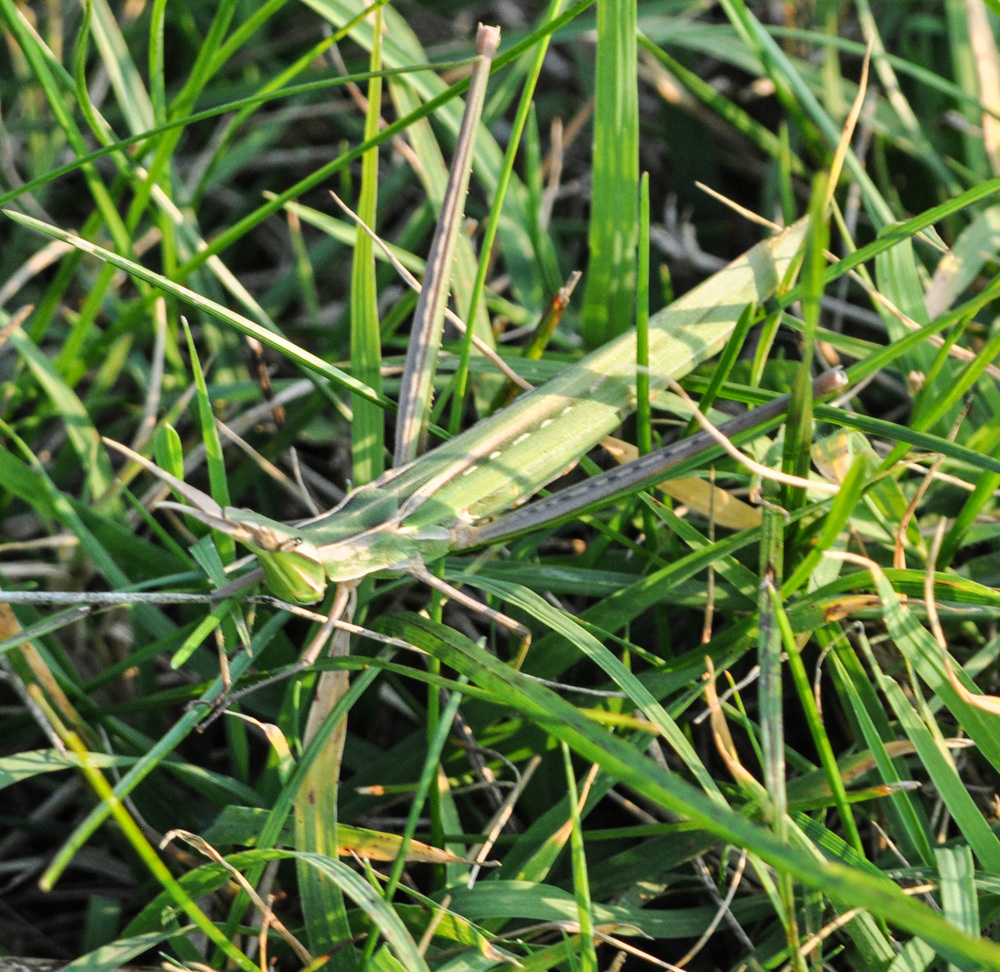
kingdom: Animalia
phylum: Arthropoda
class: Insecta
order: Orthoptera
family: Acrididae
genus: Acrida
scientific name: Acrida ungarica
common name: Common cone-headed grasshopper
